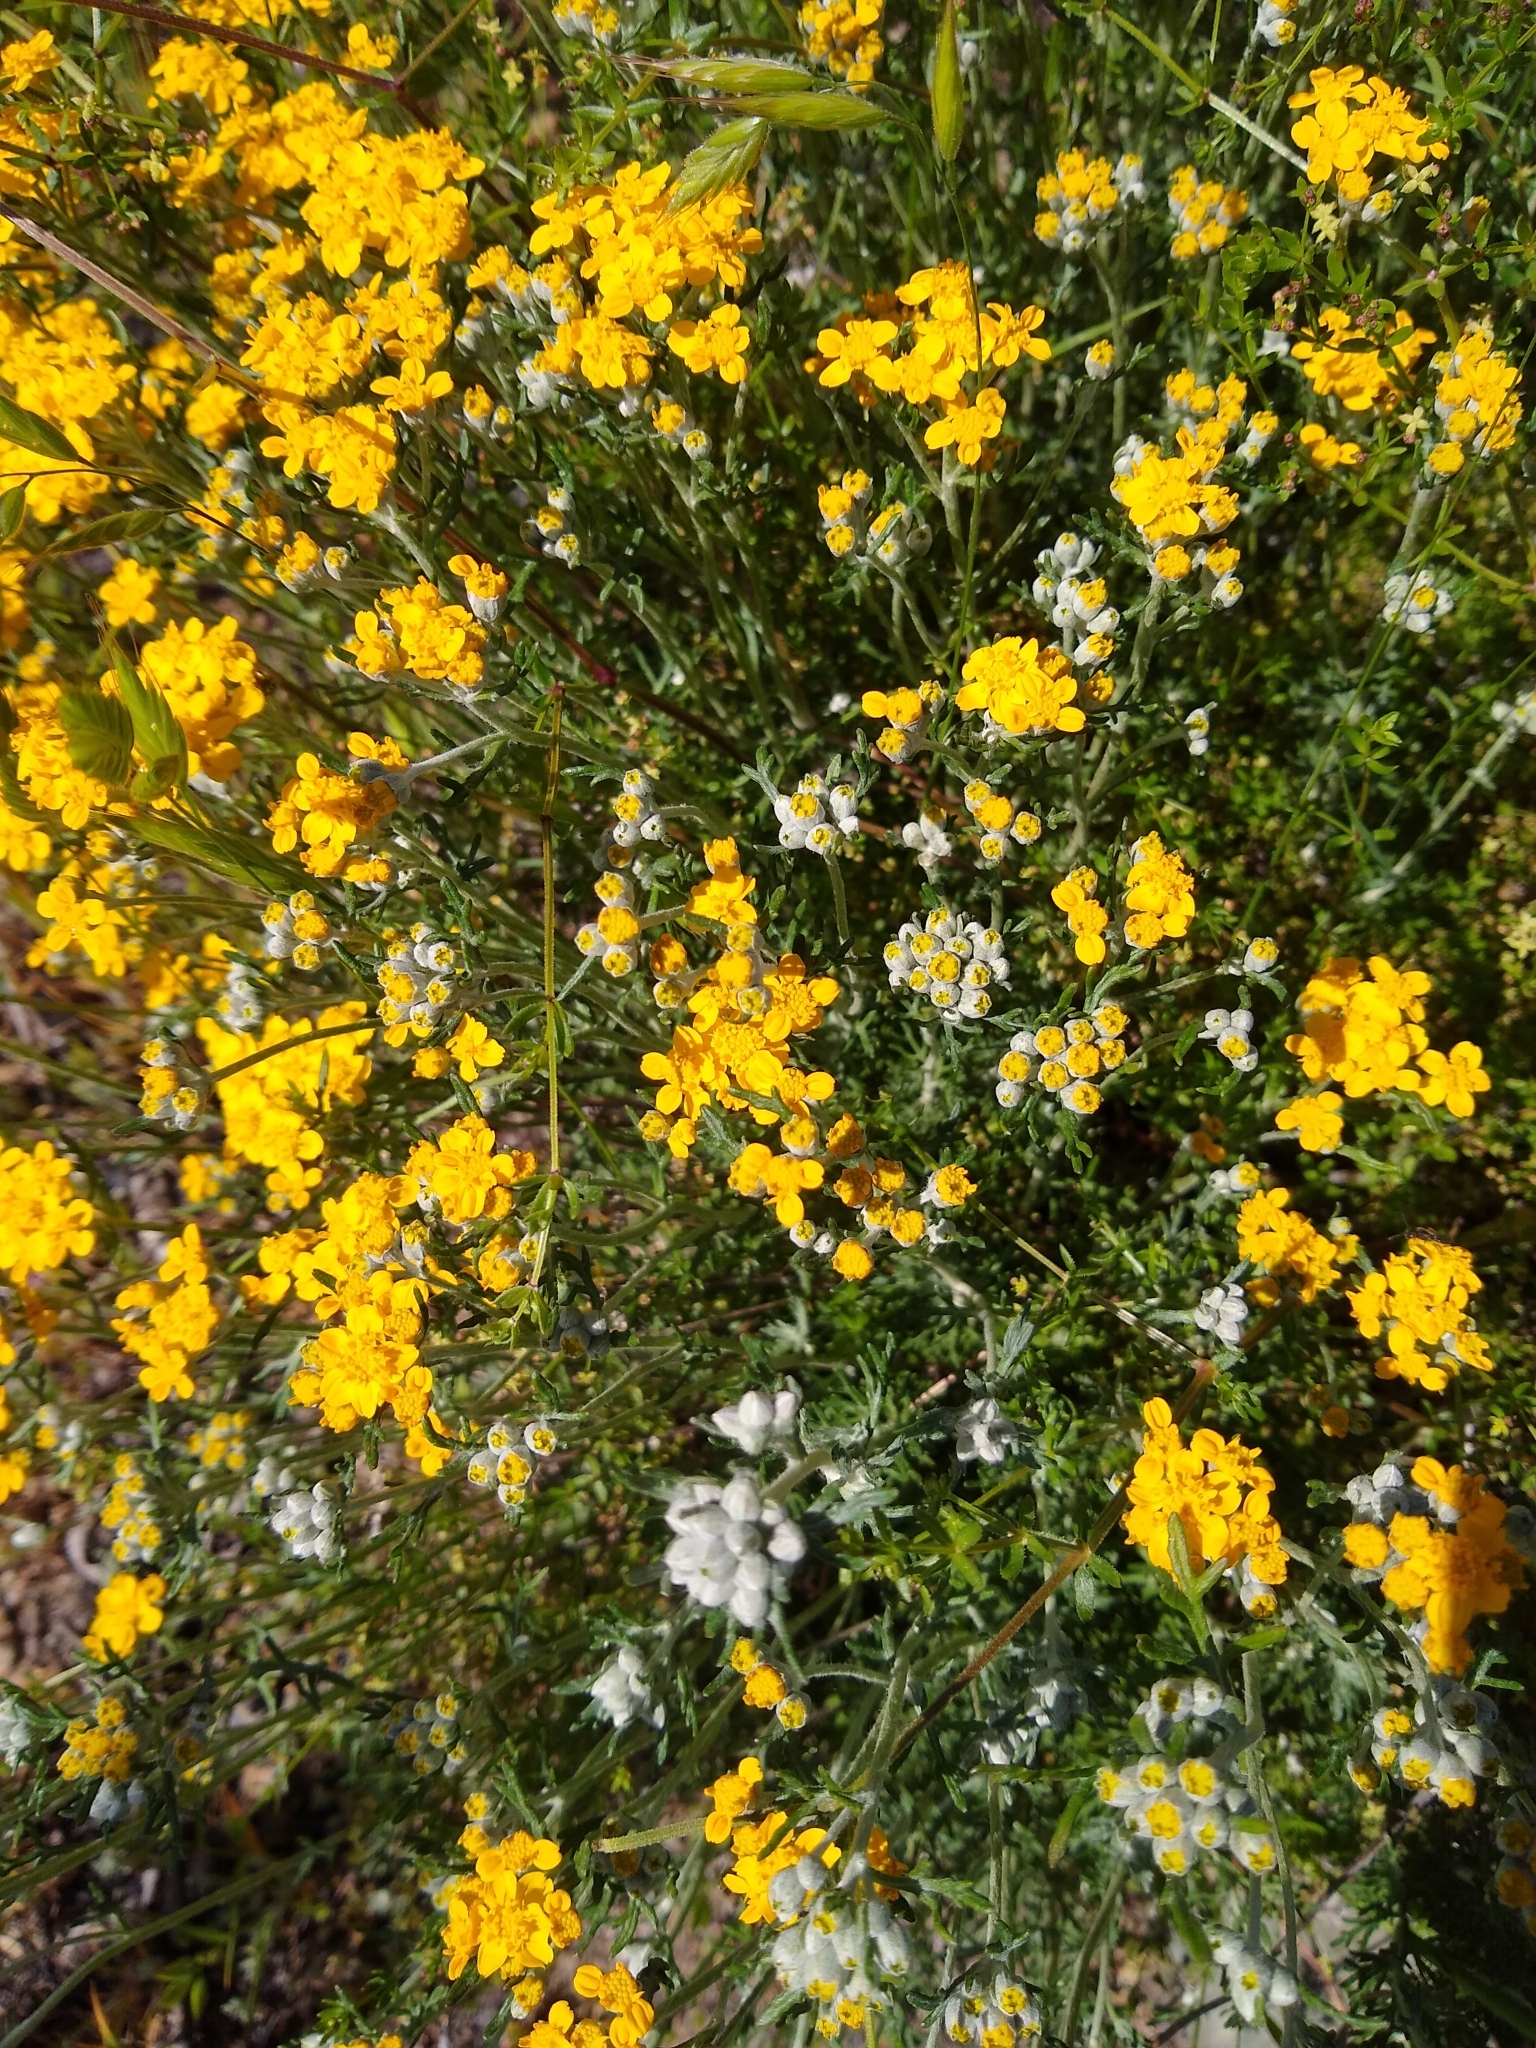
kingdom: Plantae
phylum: Tracheophyta
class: Magnoliopsida
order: Asterales
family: Asteraceae
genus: Eriophyllum
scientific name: Eriophyllum confertiflorum
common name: Golden-yarrow
